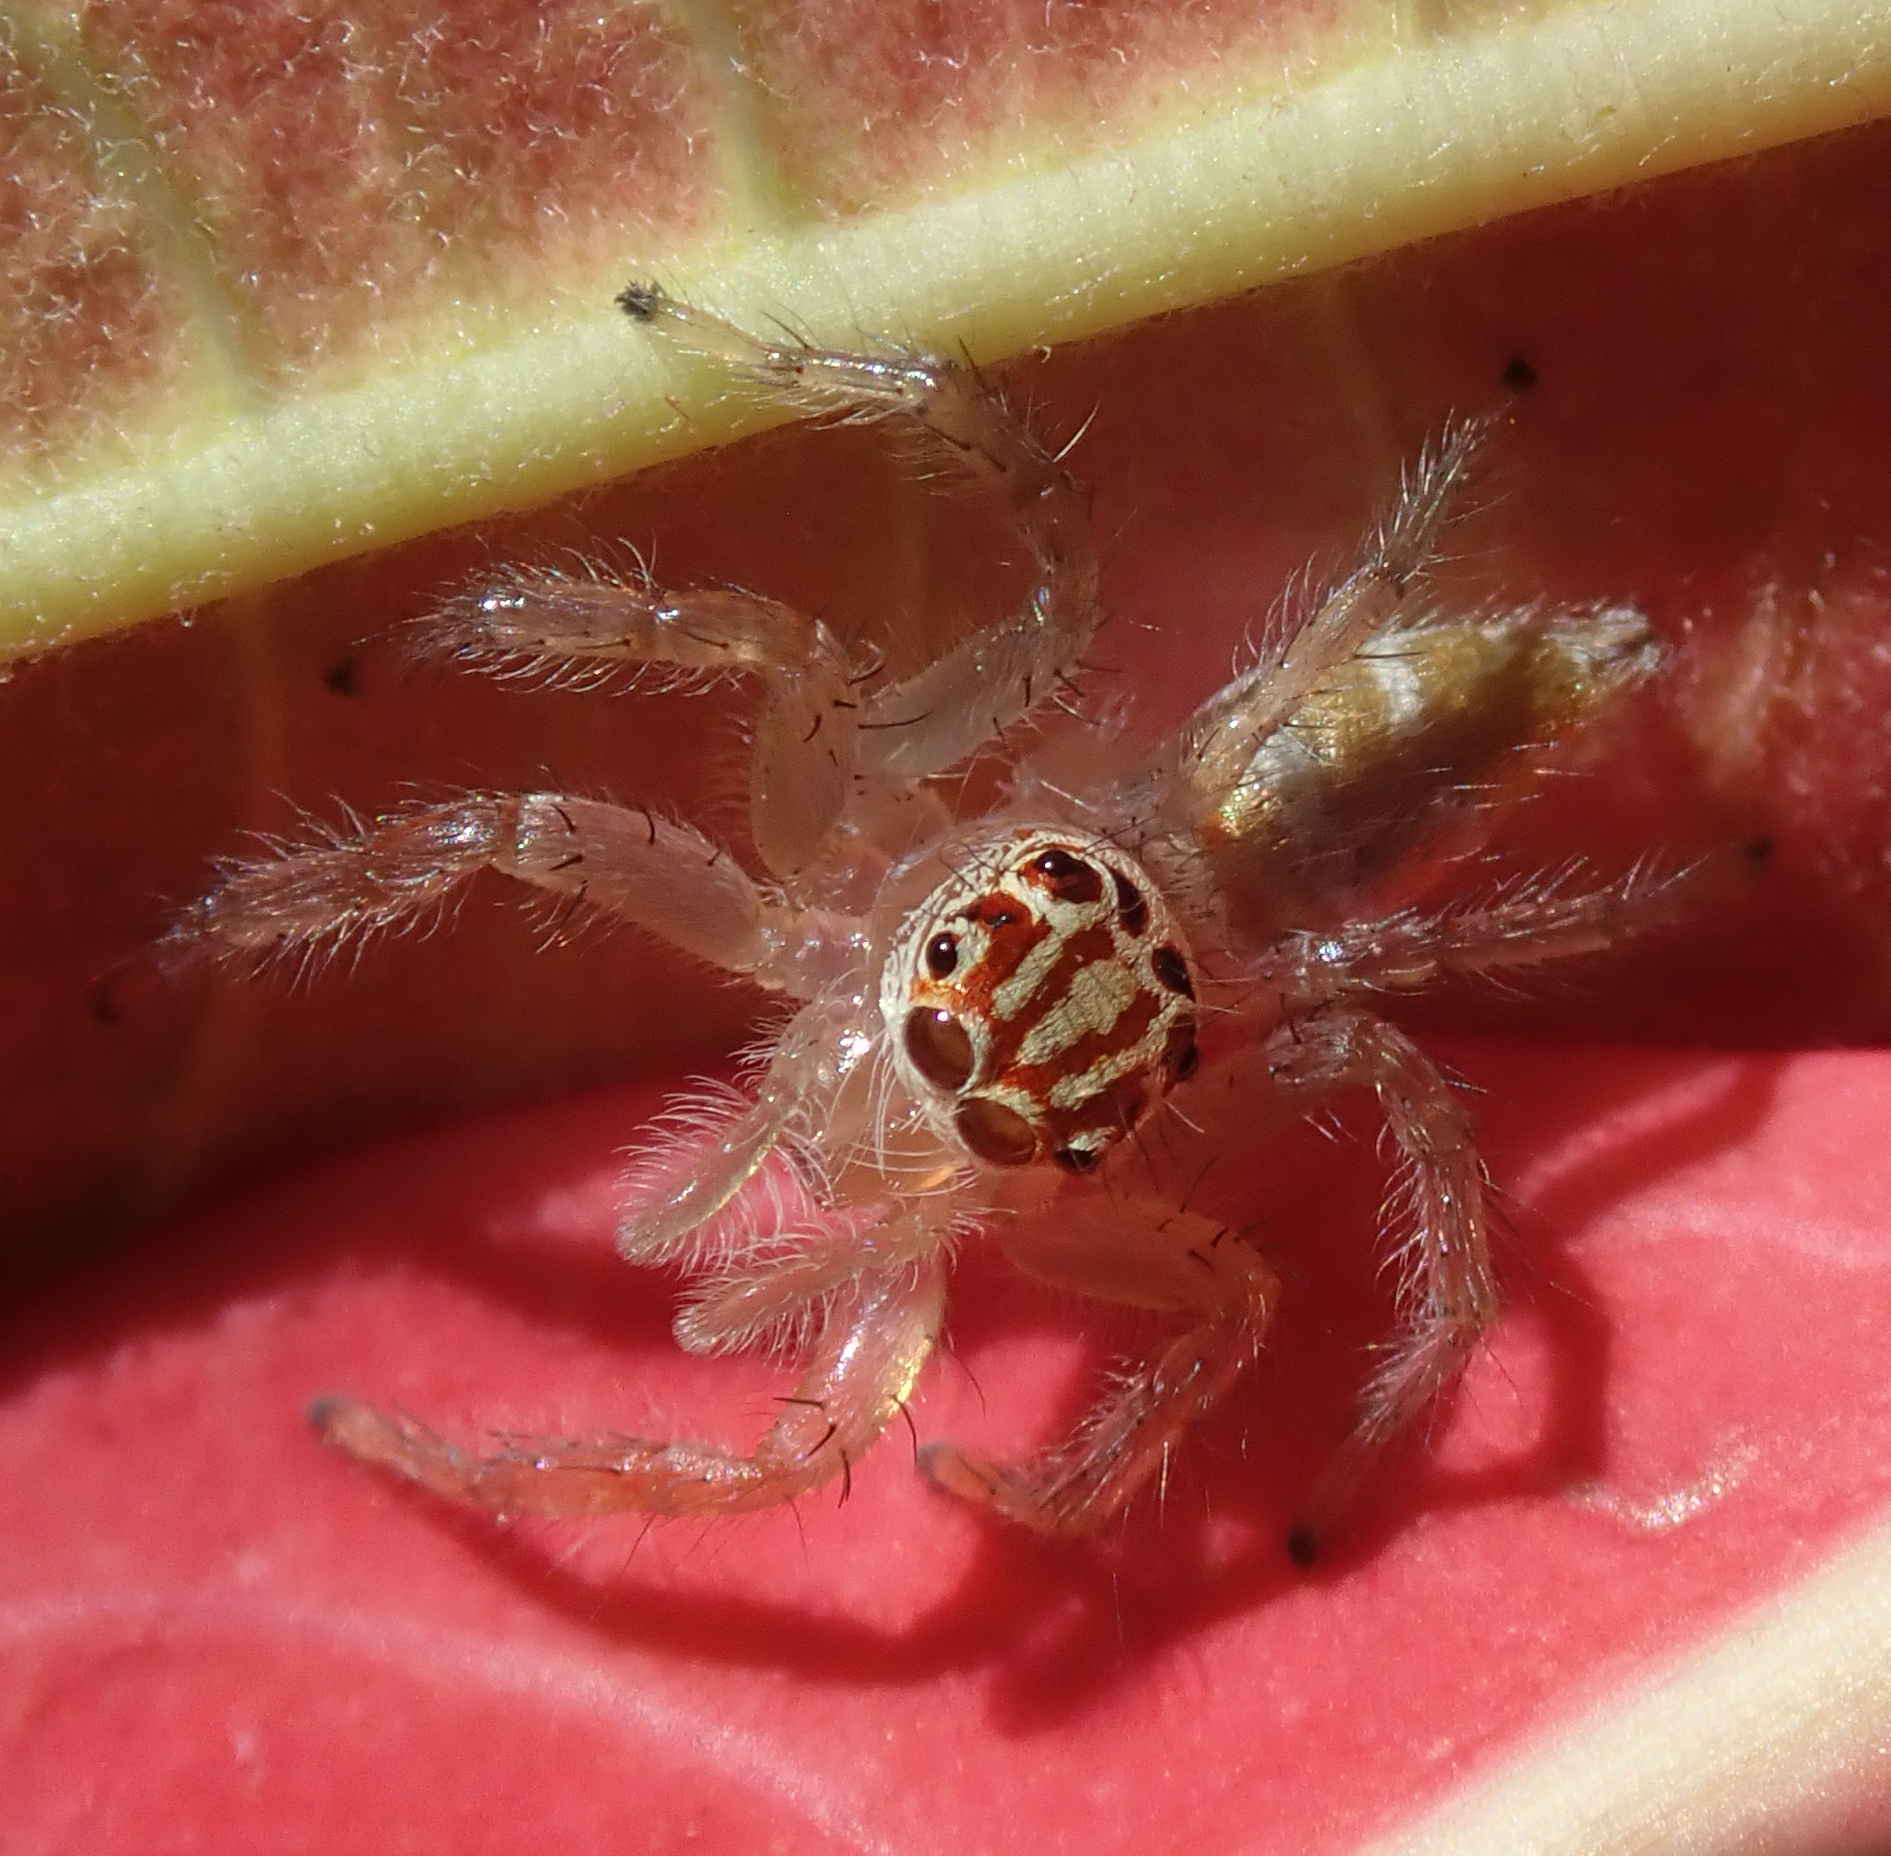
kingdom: Animalia
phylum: Arthropoda
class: Arachnida
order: Araneae
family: Salticidae
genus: Brancus
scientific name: Brancus mustelus
